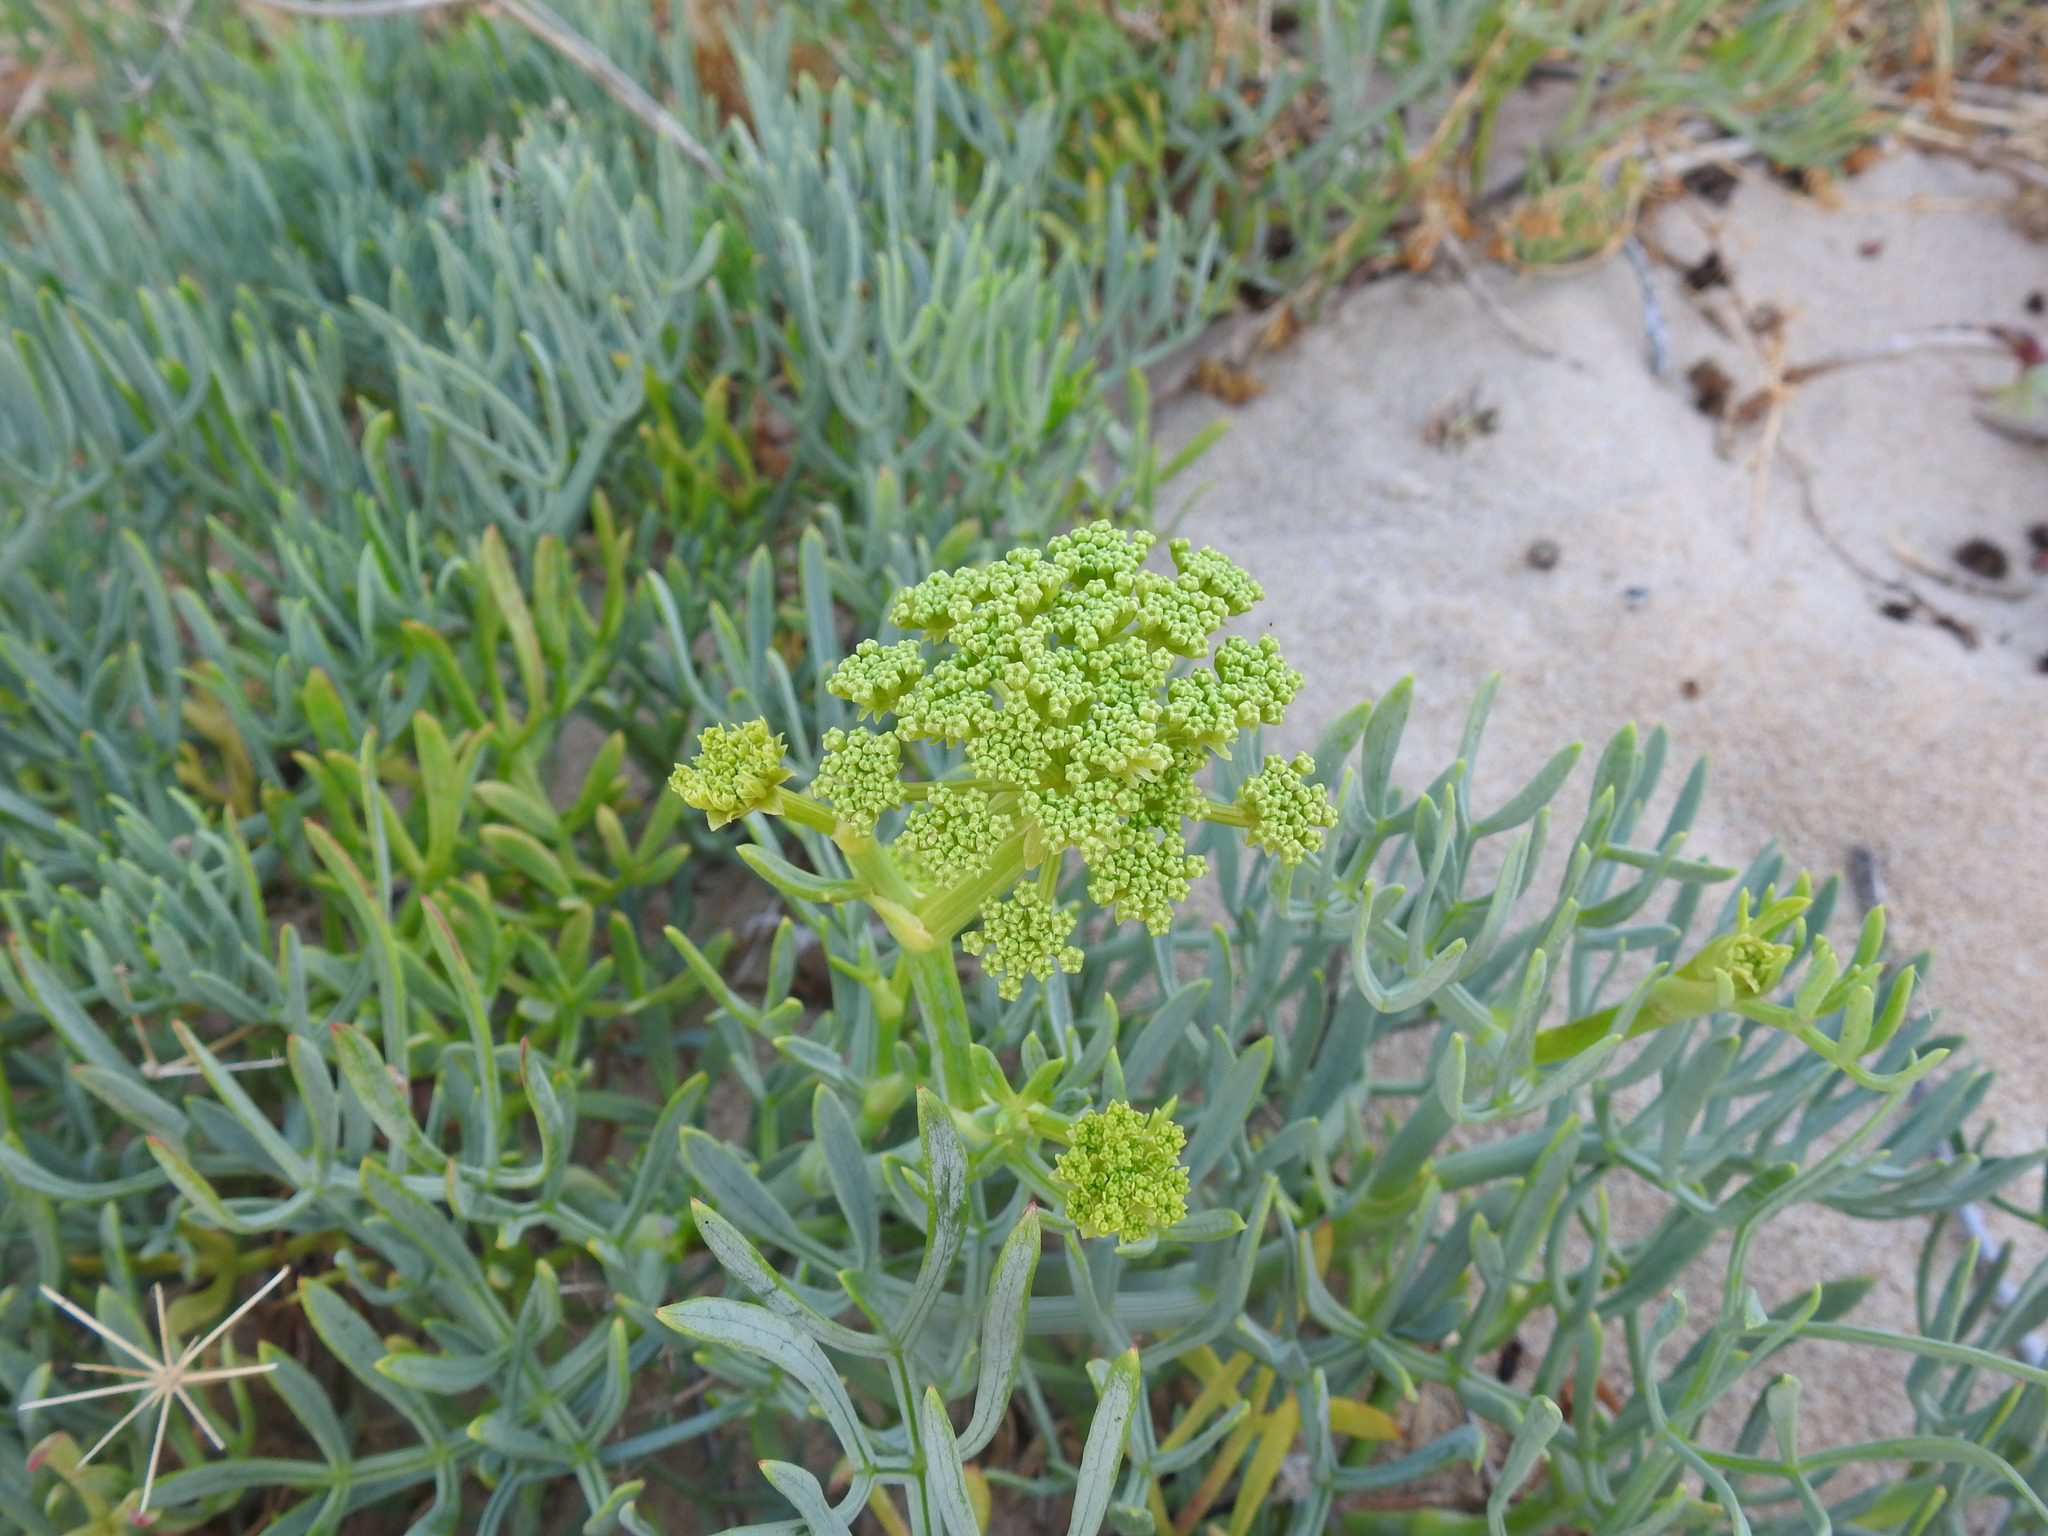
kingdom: Plantae
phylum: Tracheophyta
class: Magnoliopsida
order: Apiales
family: Apiaceae
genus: Crithmum
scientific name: Crithmum maritimum
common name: Rock samphire
